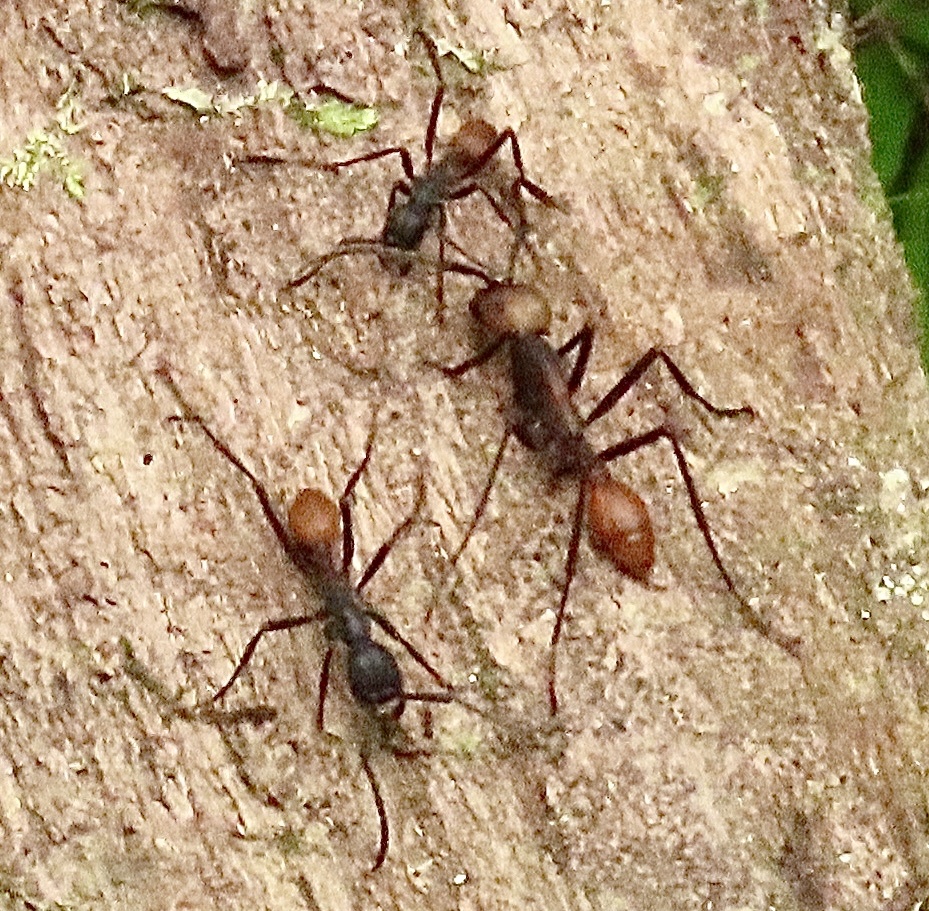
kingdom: Animalia
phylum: Arthropoda
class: Insecta
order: Hymenoptera
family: Formicidae
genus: Eciton
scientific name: Eciton burchellii
